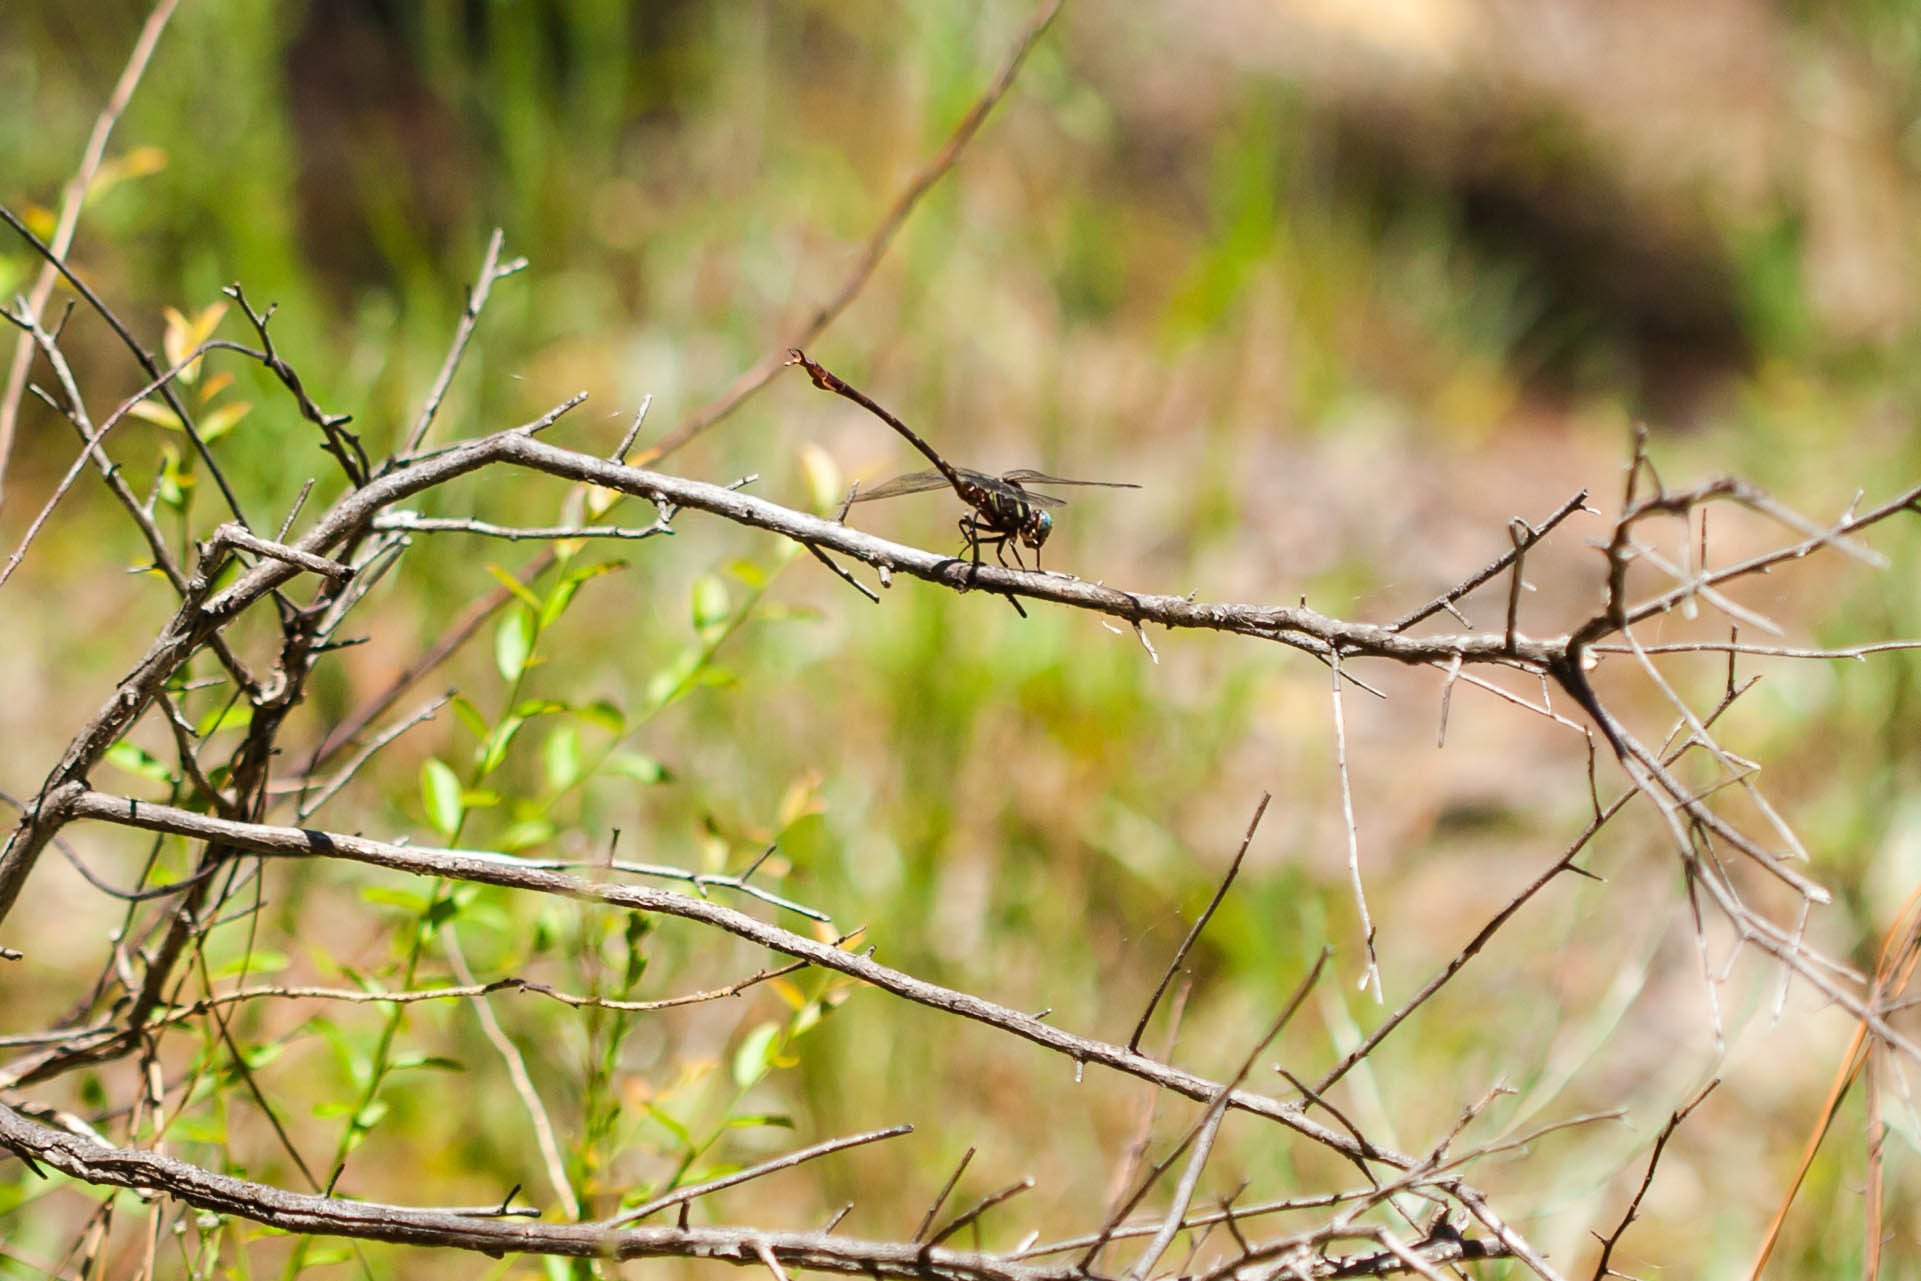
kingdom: Animalia
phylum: Arthropoda
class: Insecta
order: Odonata
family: Gomphidae
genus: Aphylla
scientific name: Aphylla williamsoni
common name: Two-striped forceptail
